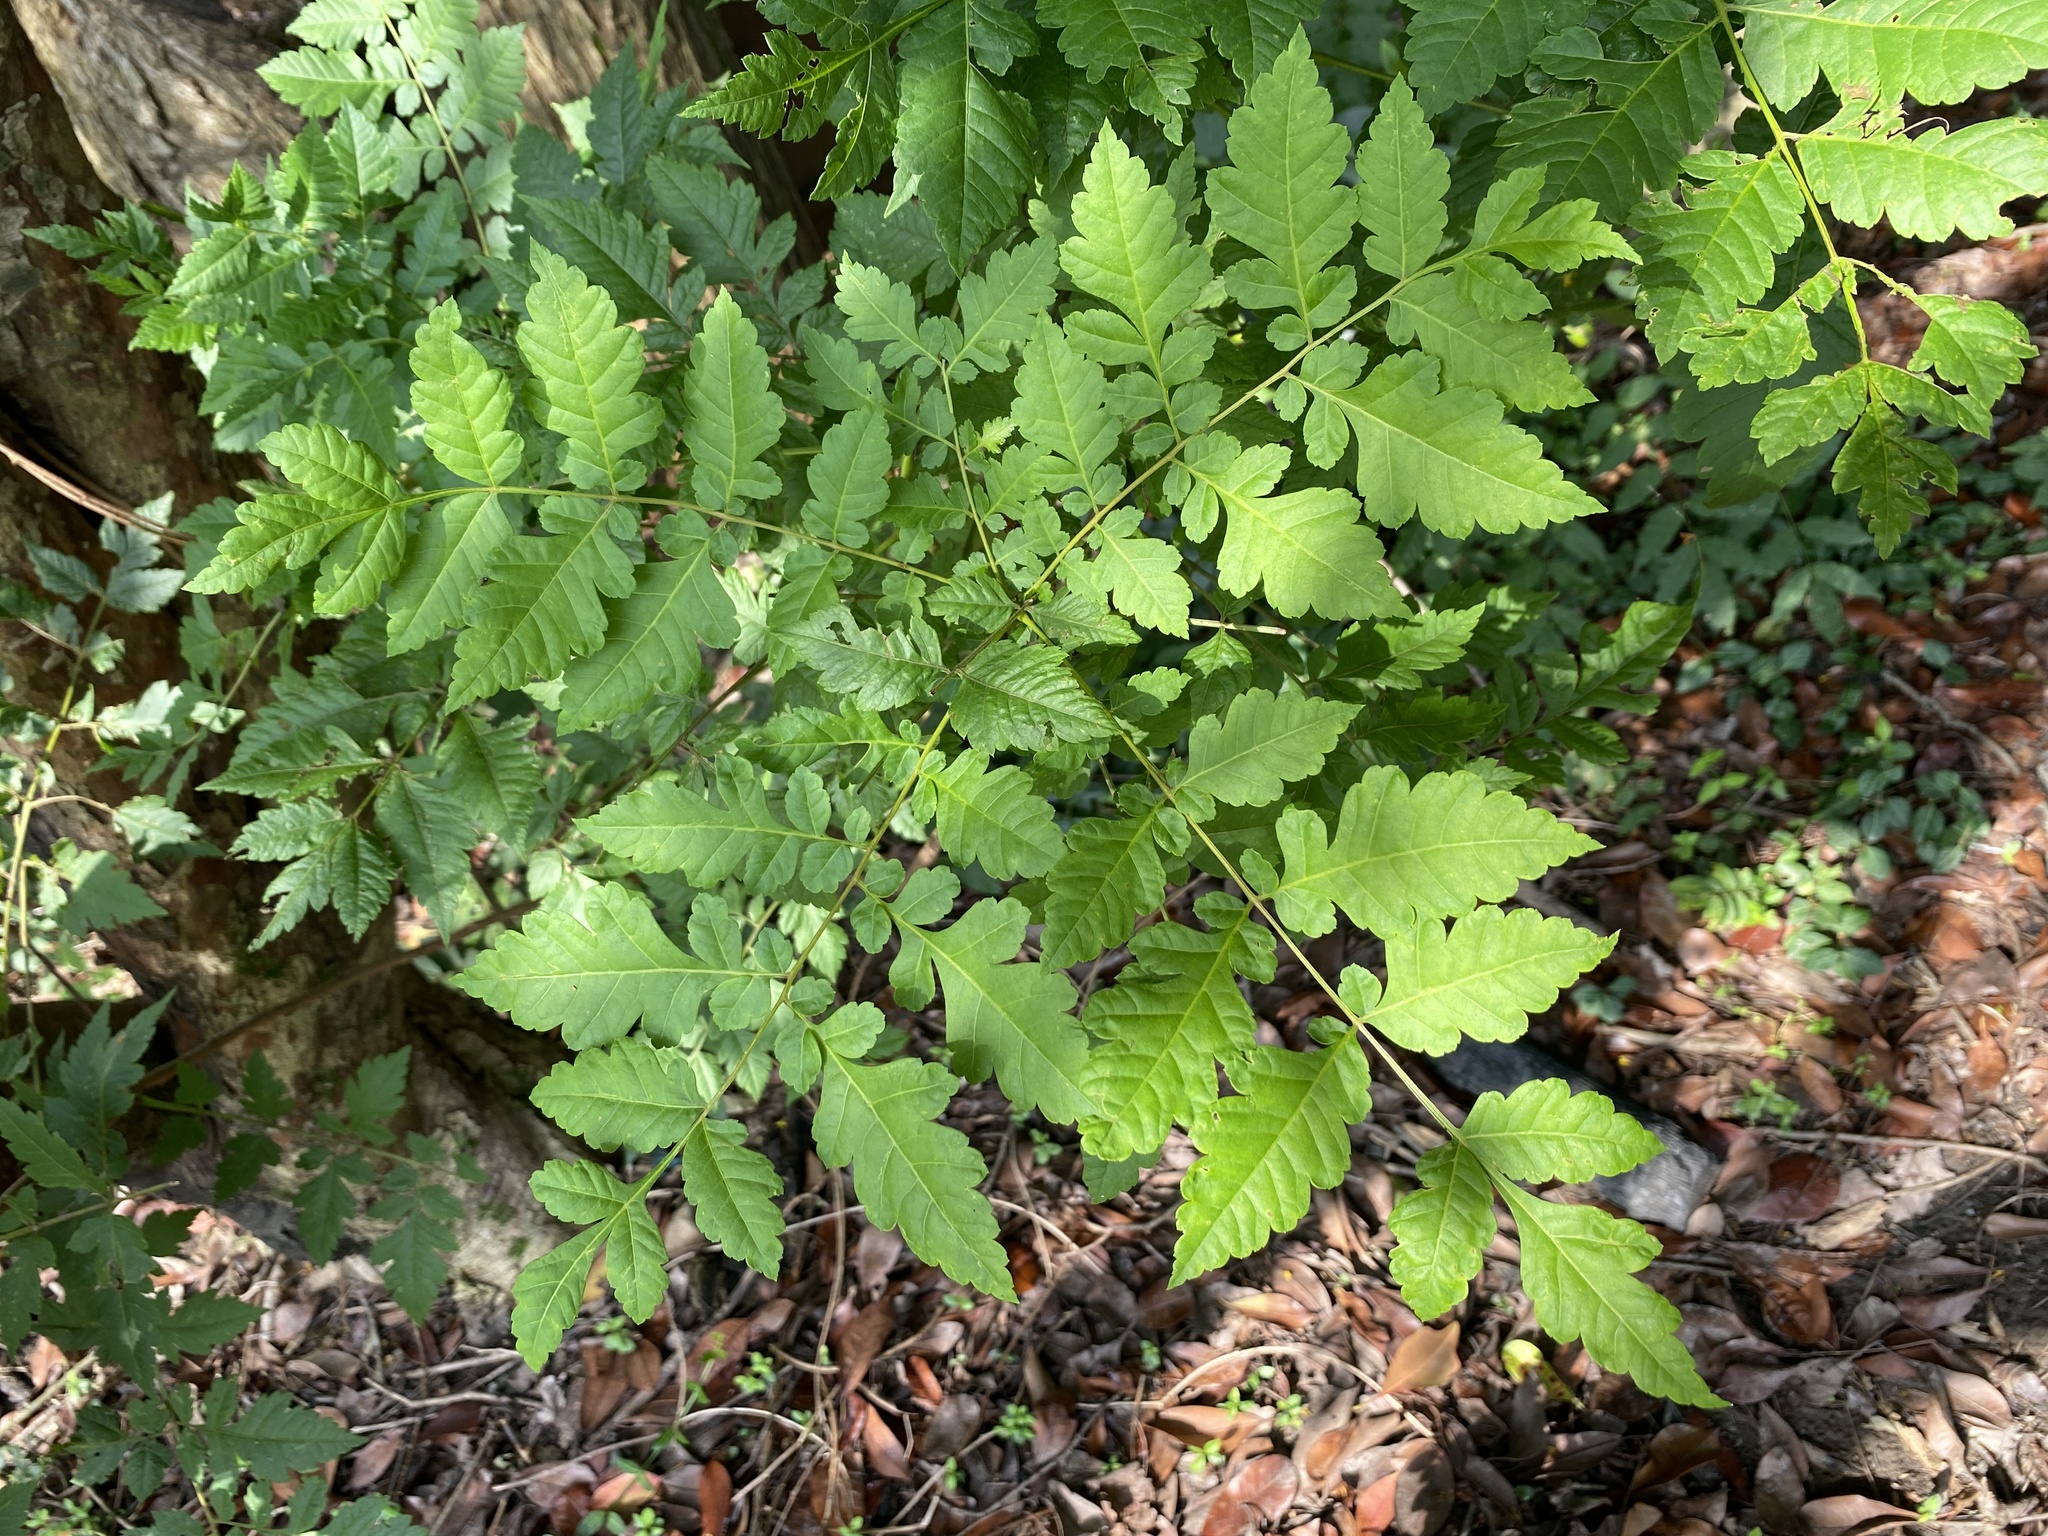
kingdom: Plantae
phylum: Tracheophyta
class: Magnoliopsida
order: Sapindales
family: Sapindaceae
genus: Koelreuteria
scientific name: Koelreuteria paniculata
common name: Pride-of-india
